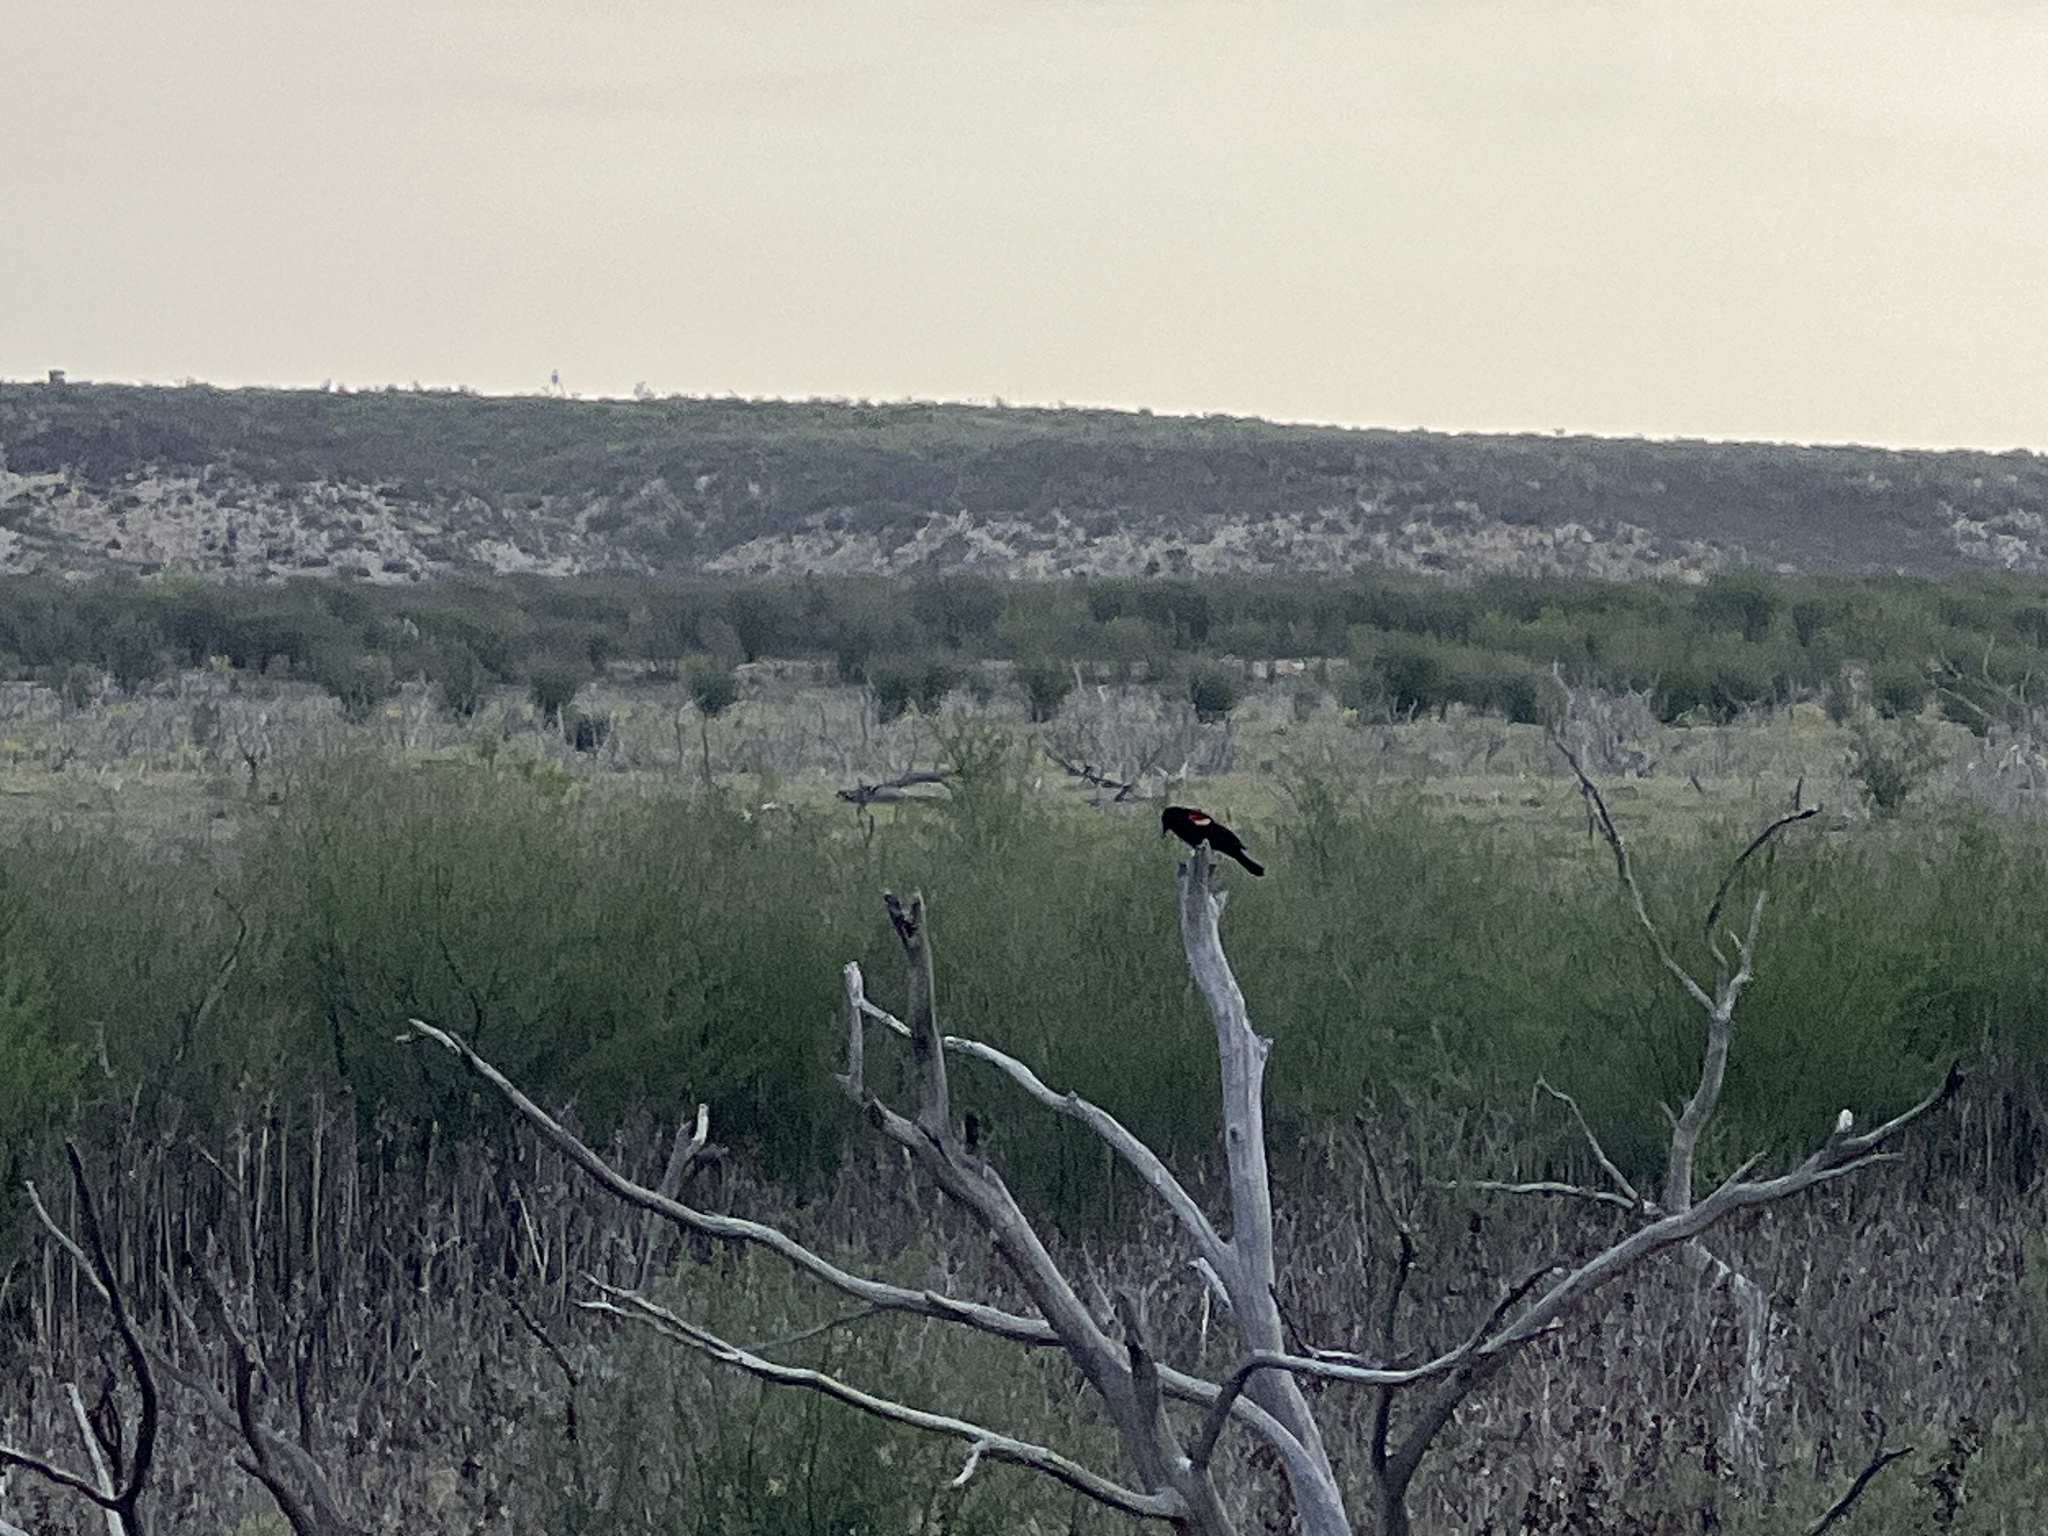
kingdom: Animalia
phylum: Chordata
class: Aves
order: Passeriformes
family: Icteridae
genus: Agelaius
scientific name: Agelaius phoeniceus
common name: Red-winged blackbird
